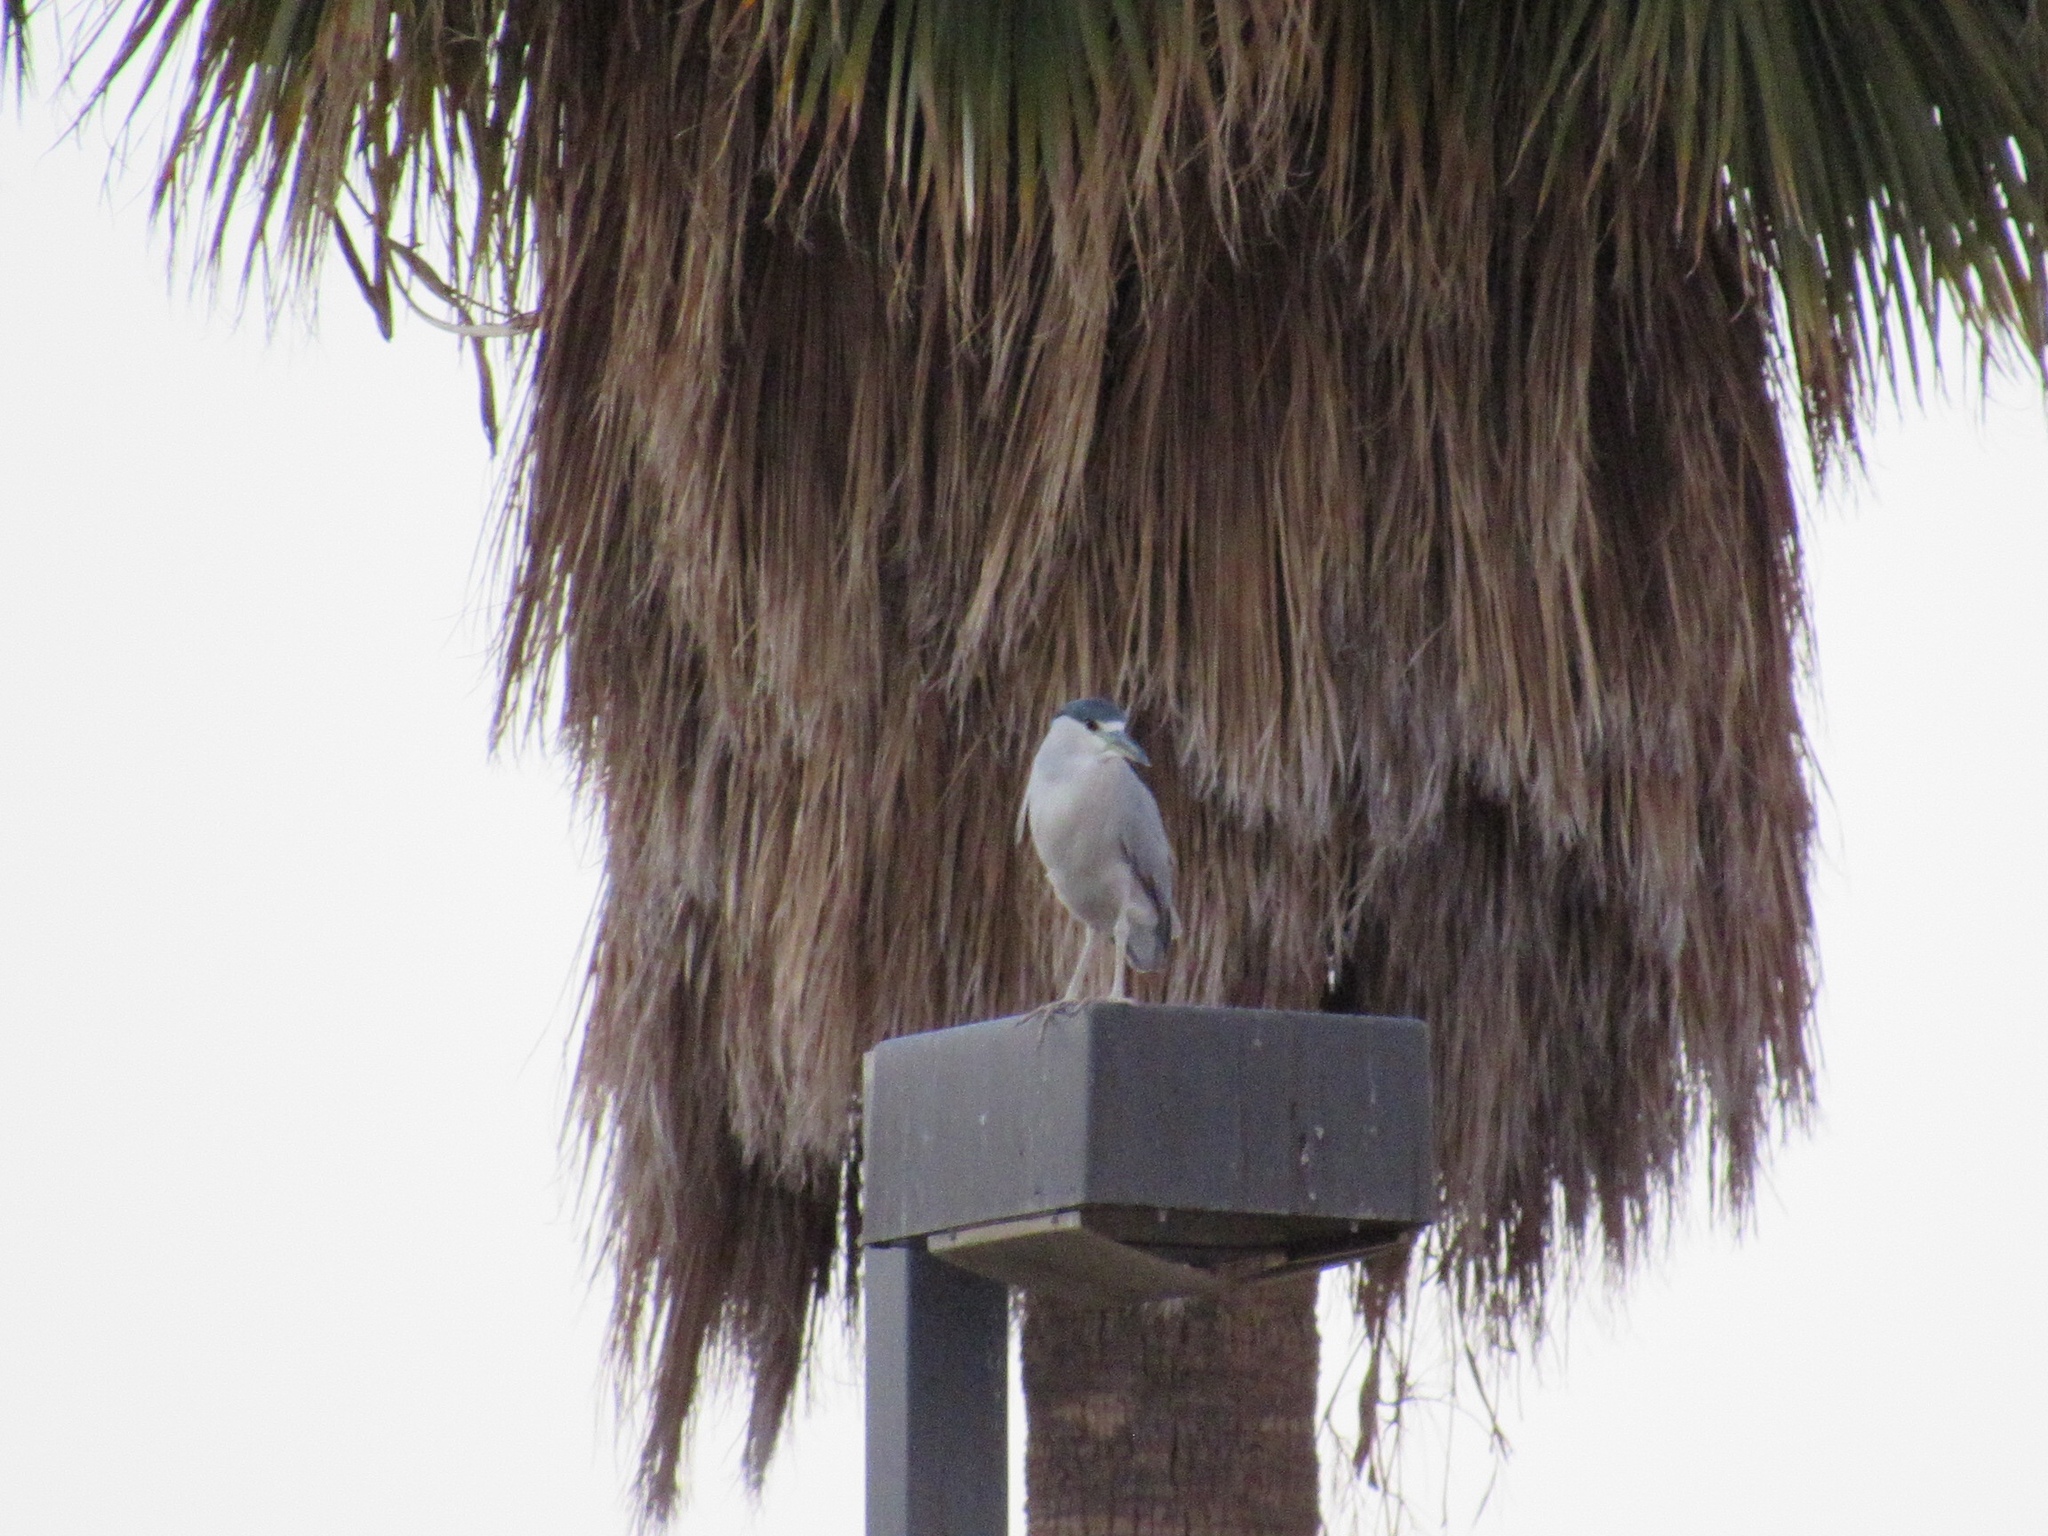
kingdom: Animalia
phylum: Chordata
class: Aves
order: Pelecaniformes
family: Ardeidae
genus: Nycticorax
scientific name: Nycticorax nycticorax
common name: Black-crowned night heron
